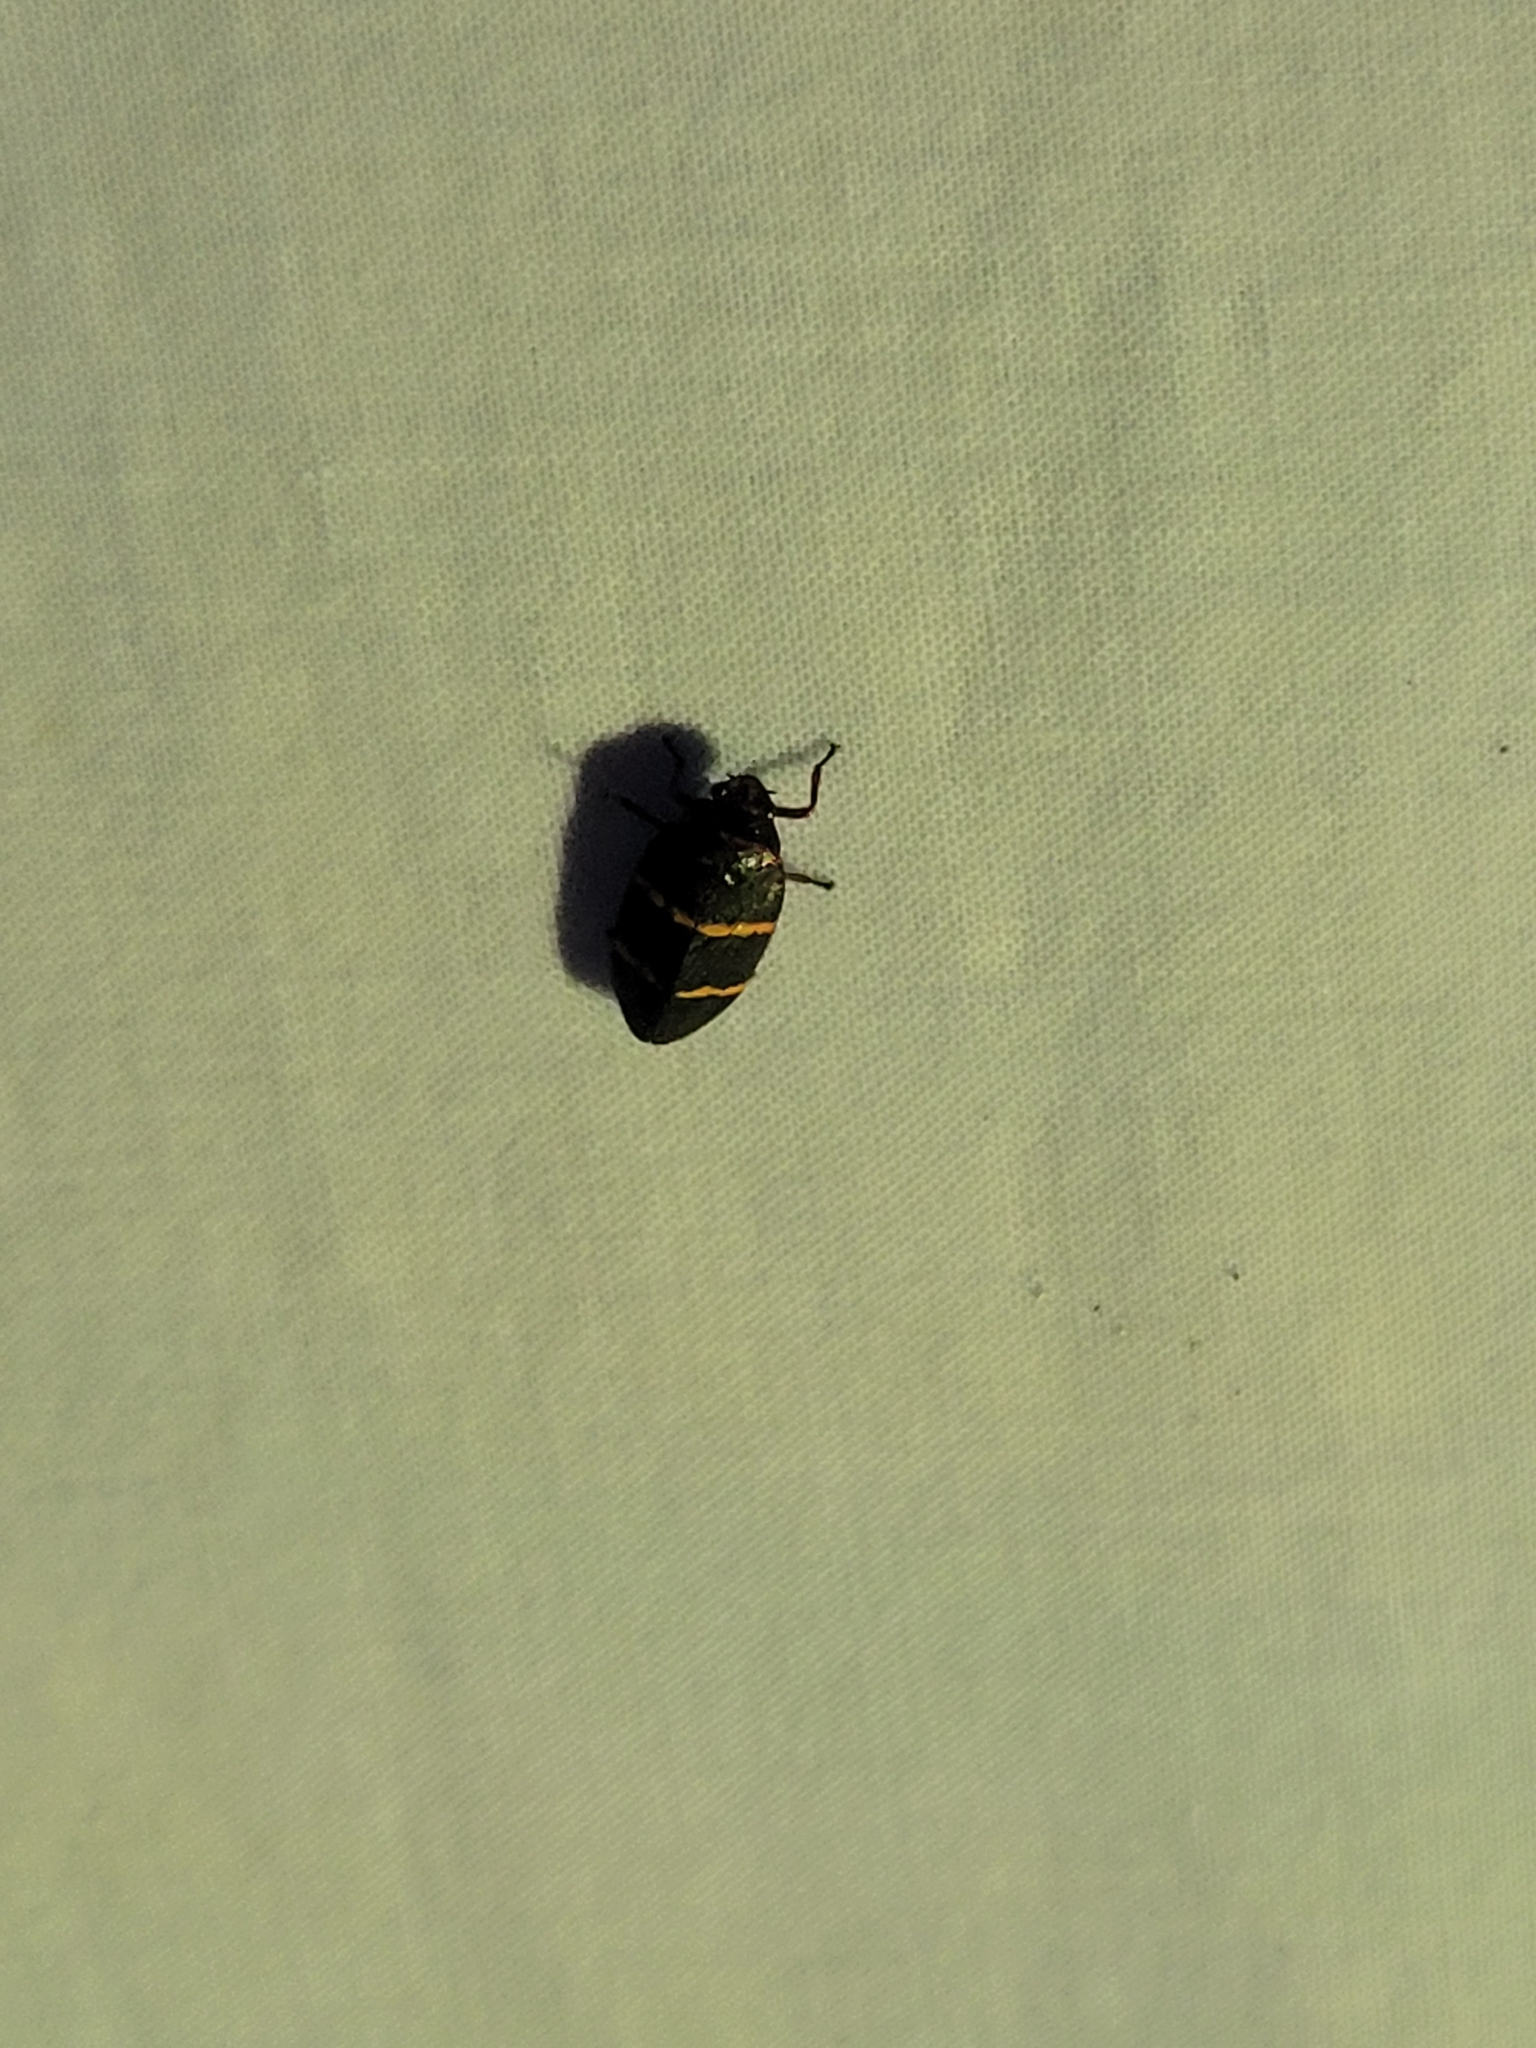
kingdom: Animalia
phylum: Arthropoda
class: Insecta
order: Hemiptera
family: Cercopidae
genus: Prosapia
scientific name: Prosapia bicincta
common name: Twolined spittlebug
